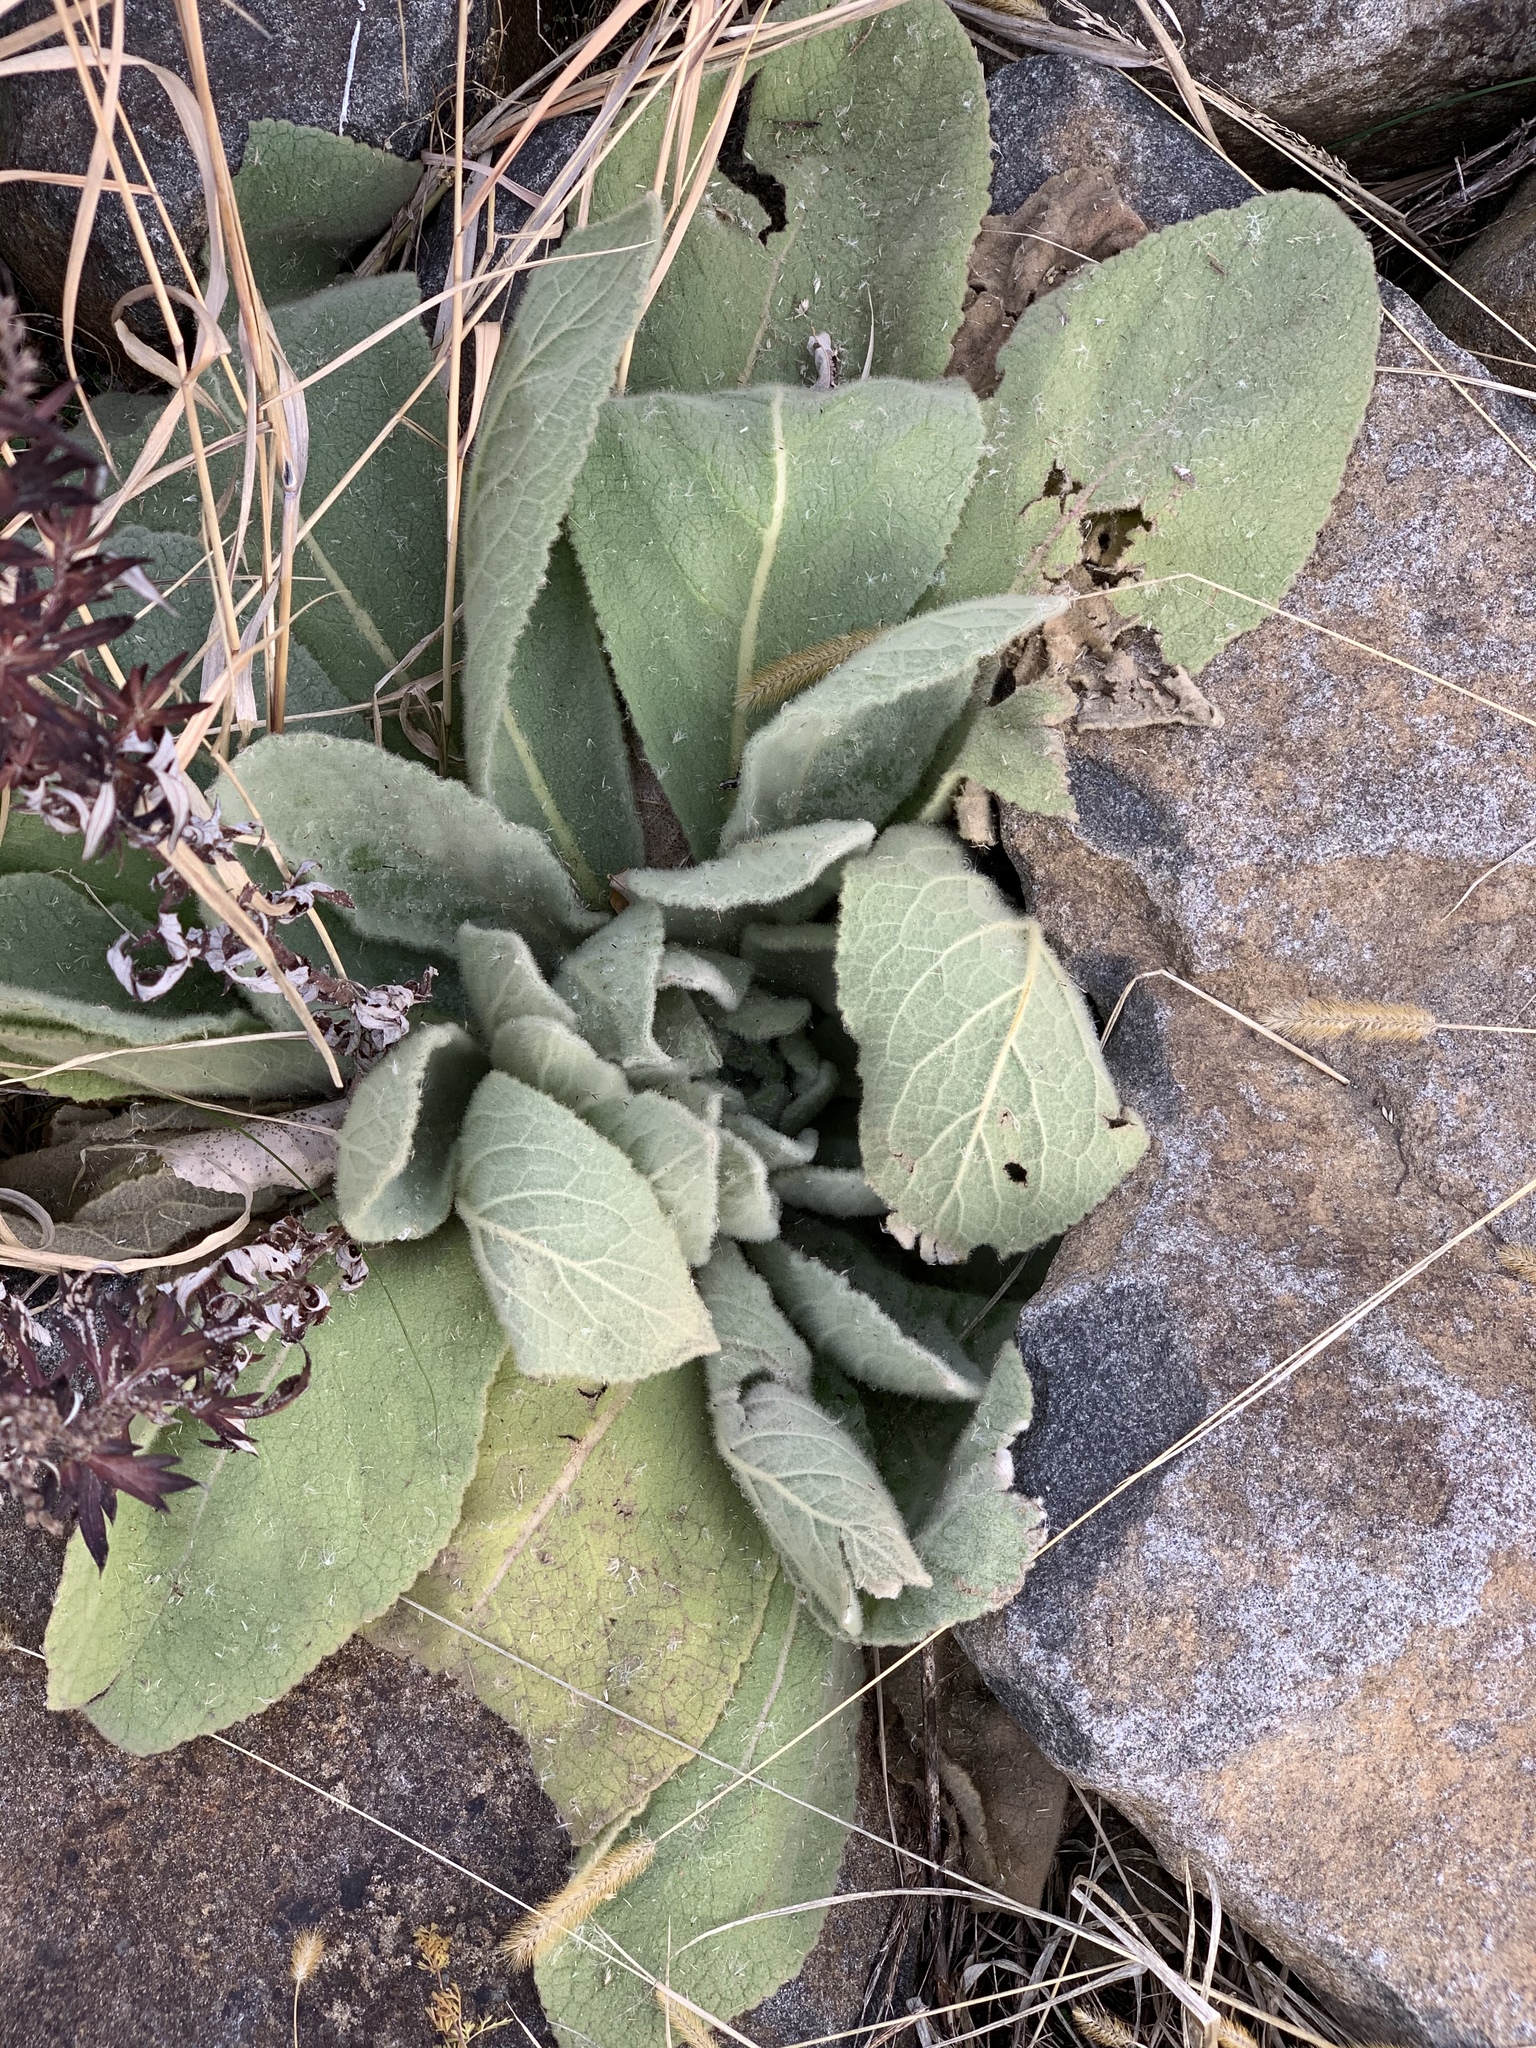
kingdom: Plantae
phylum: Tracheophyta
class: Magnoliopsida
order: Lamiales
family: Scrophulariaceae
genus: Verbascum
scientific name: Verbascum thapsus
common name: Common mullein
